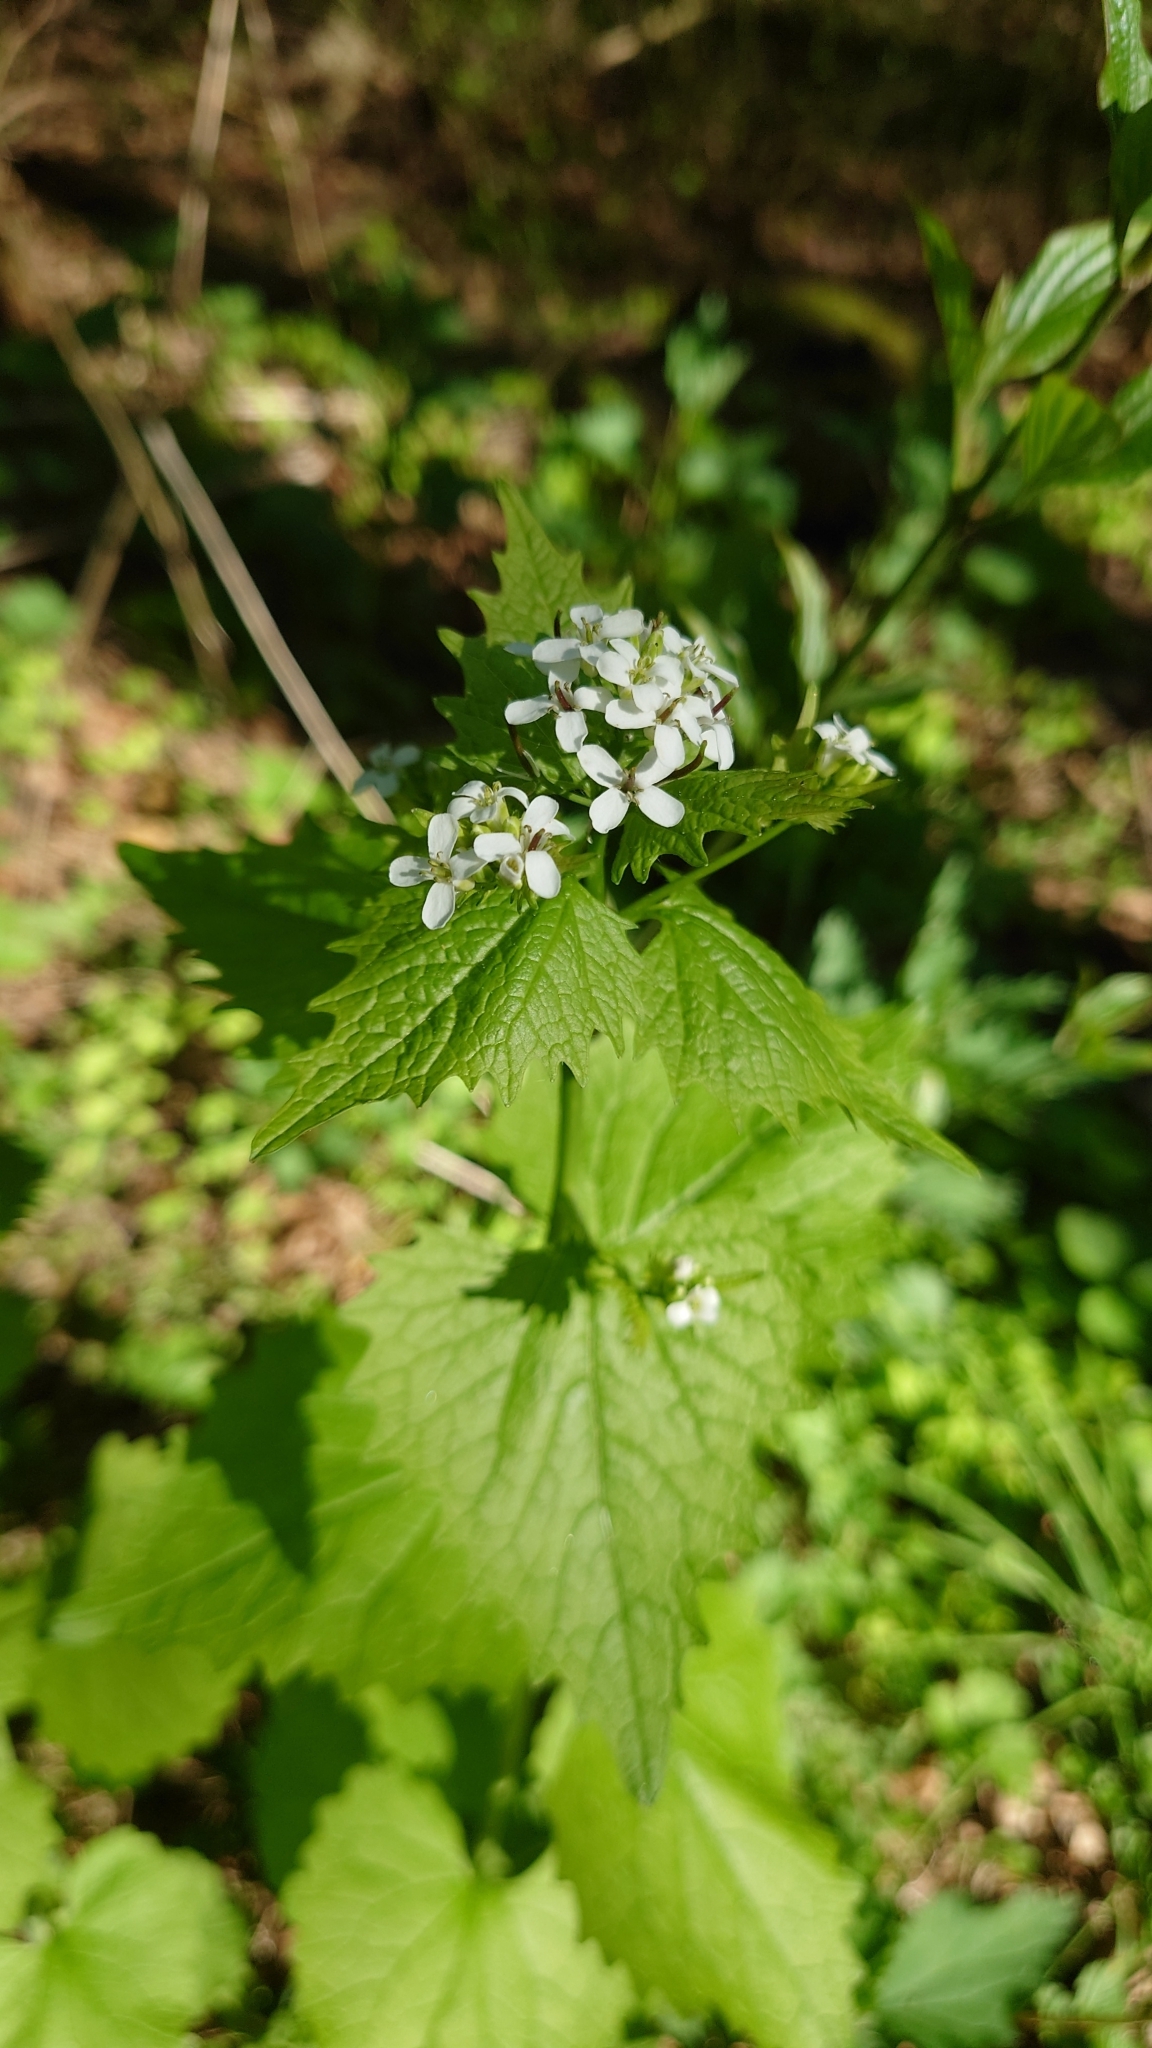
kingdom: Plantae
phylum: Tracheophyta
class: Magnoliopsida
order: Brassicales
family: Brassicaceae
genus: Alliaria
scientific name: Alliaria petiolata
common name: Garlic mustard
